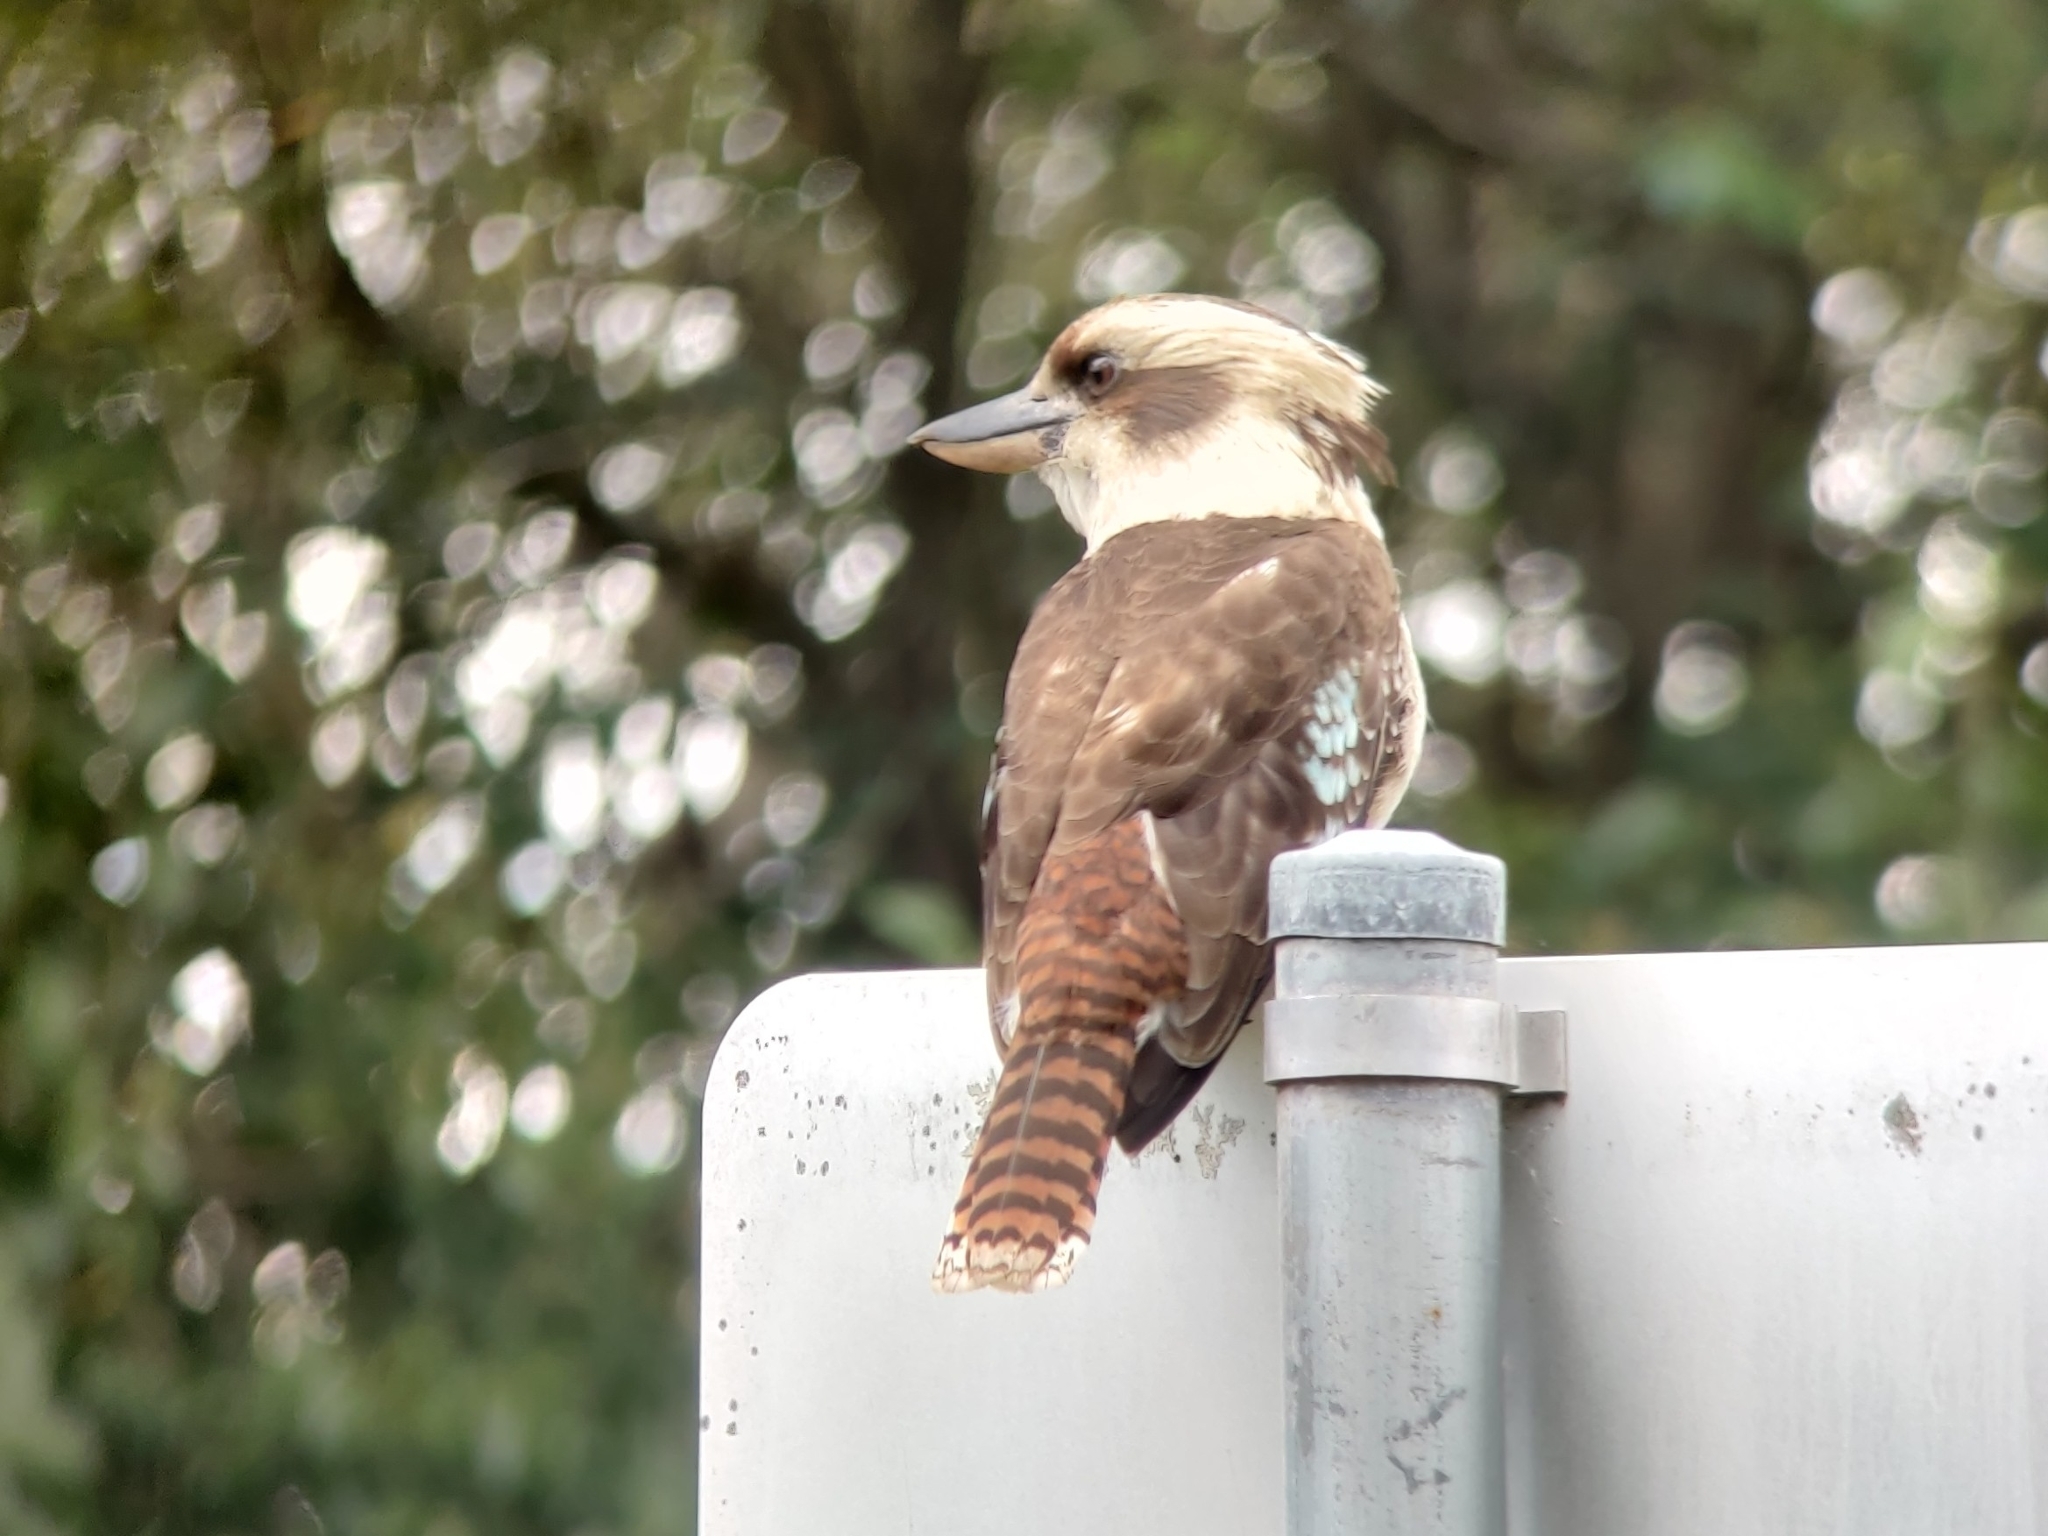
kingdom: Animalia
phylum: Chordata
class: Aves
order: Coraciiformes
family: Alcedinidae
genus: Dacelo
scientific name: Dacelo novaeguineae
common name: Laughing kookaburra
